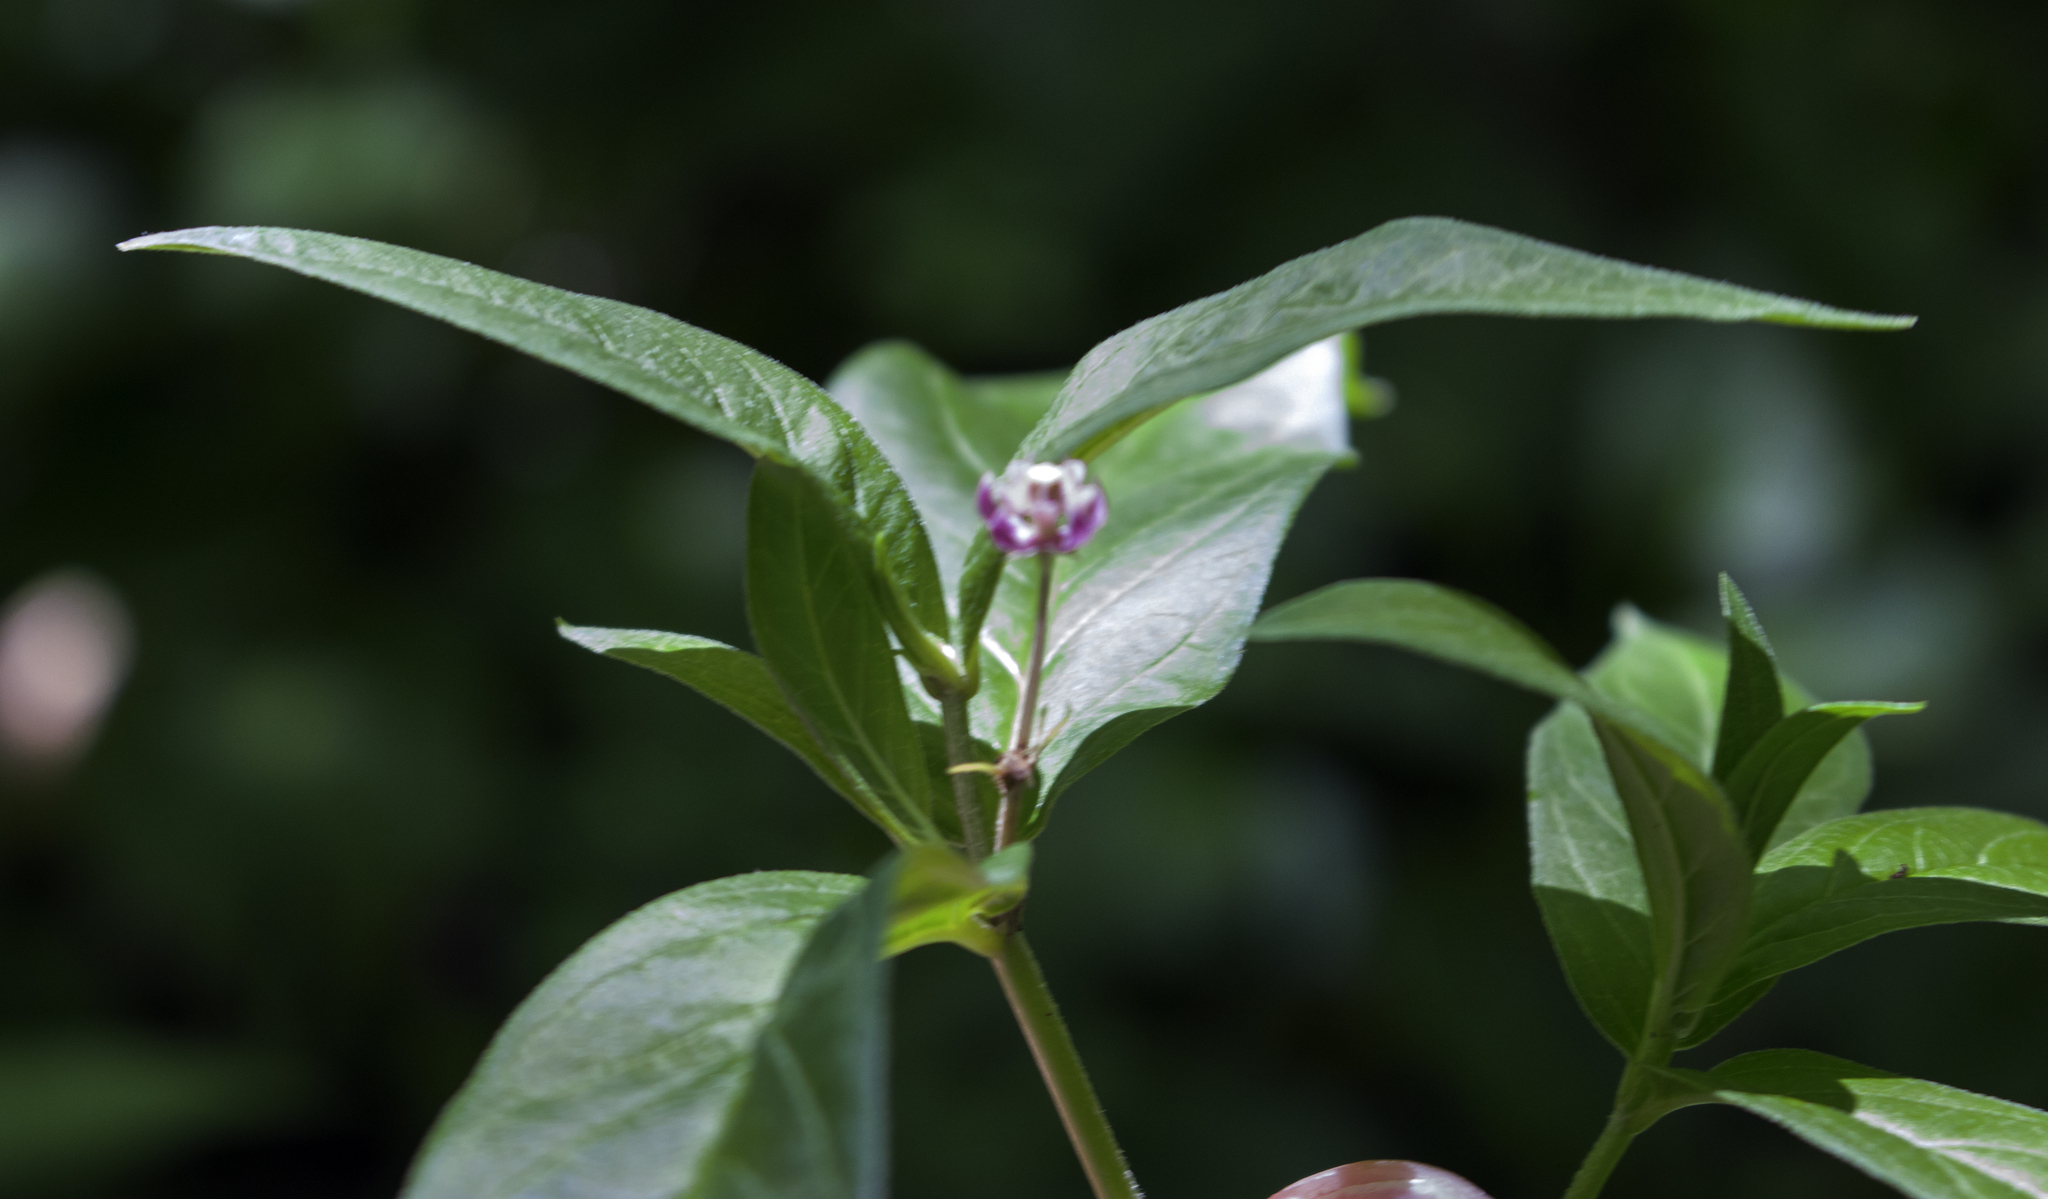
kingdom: Plantae
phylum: Tracheophyta
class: Magnoliopsida
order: Gentianales
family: Apocynaceae
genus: Asclepias
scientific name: Asclepias incarnata
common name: Swamp milkweed
